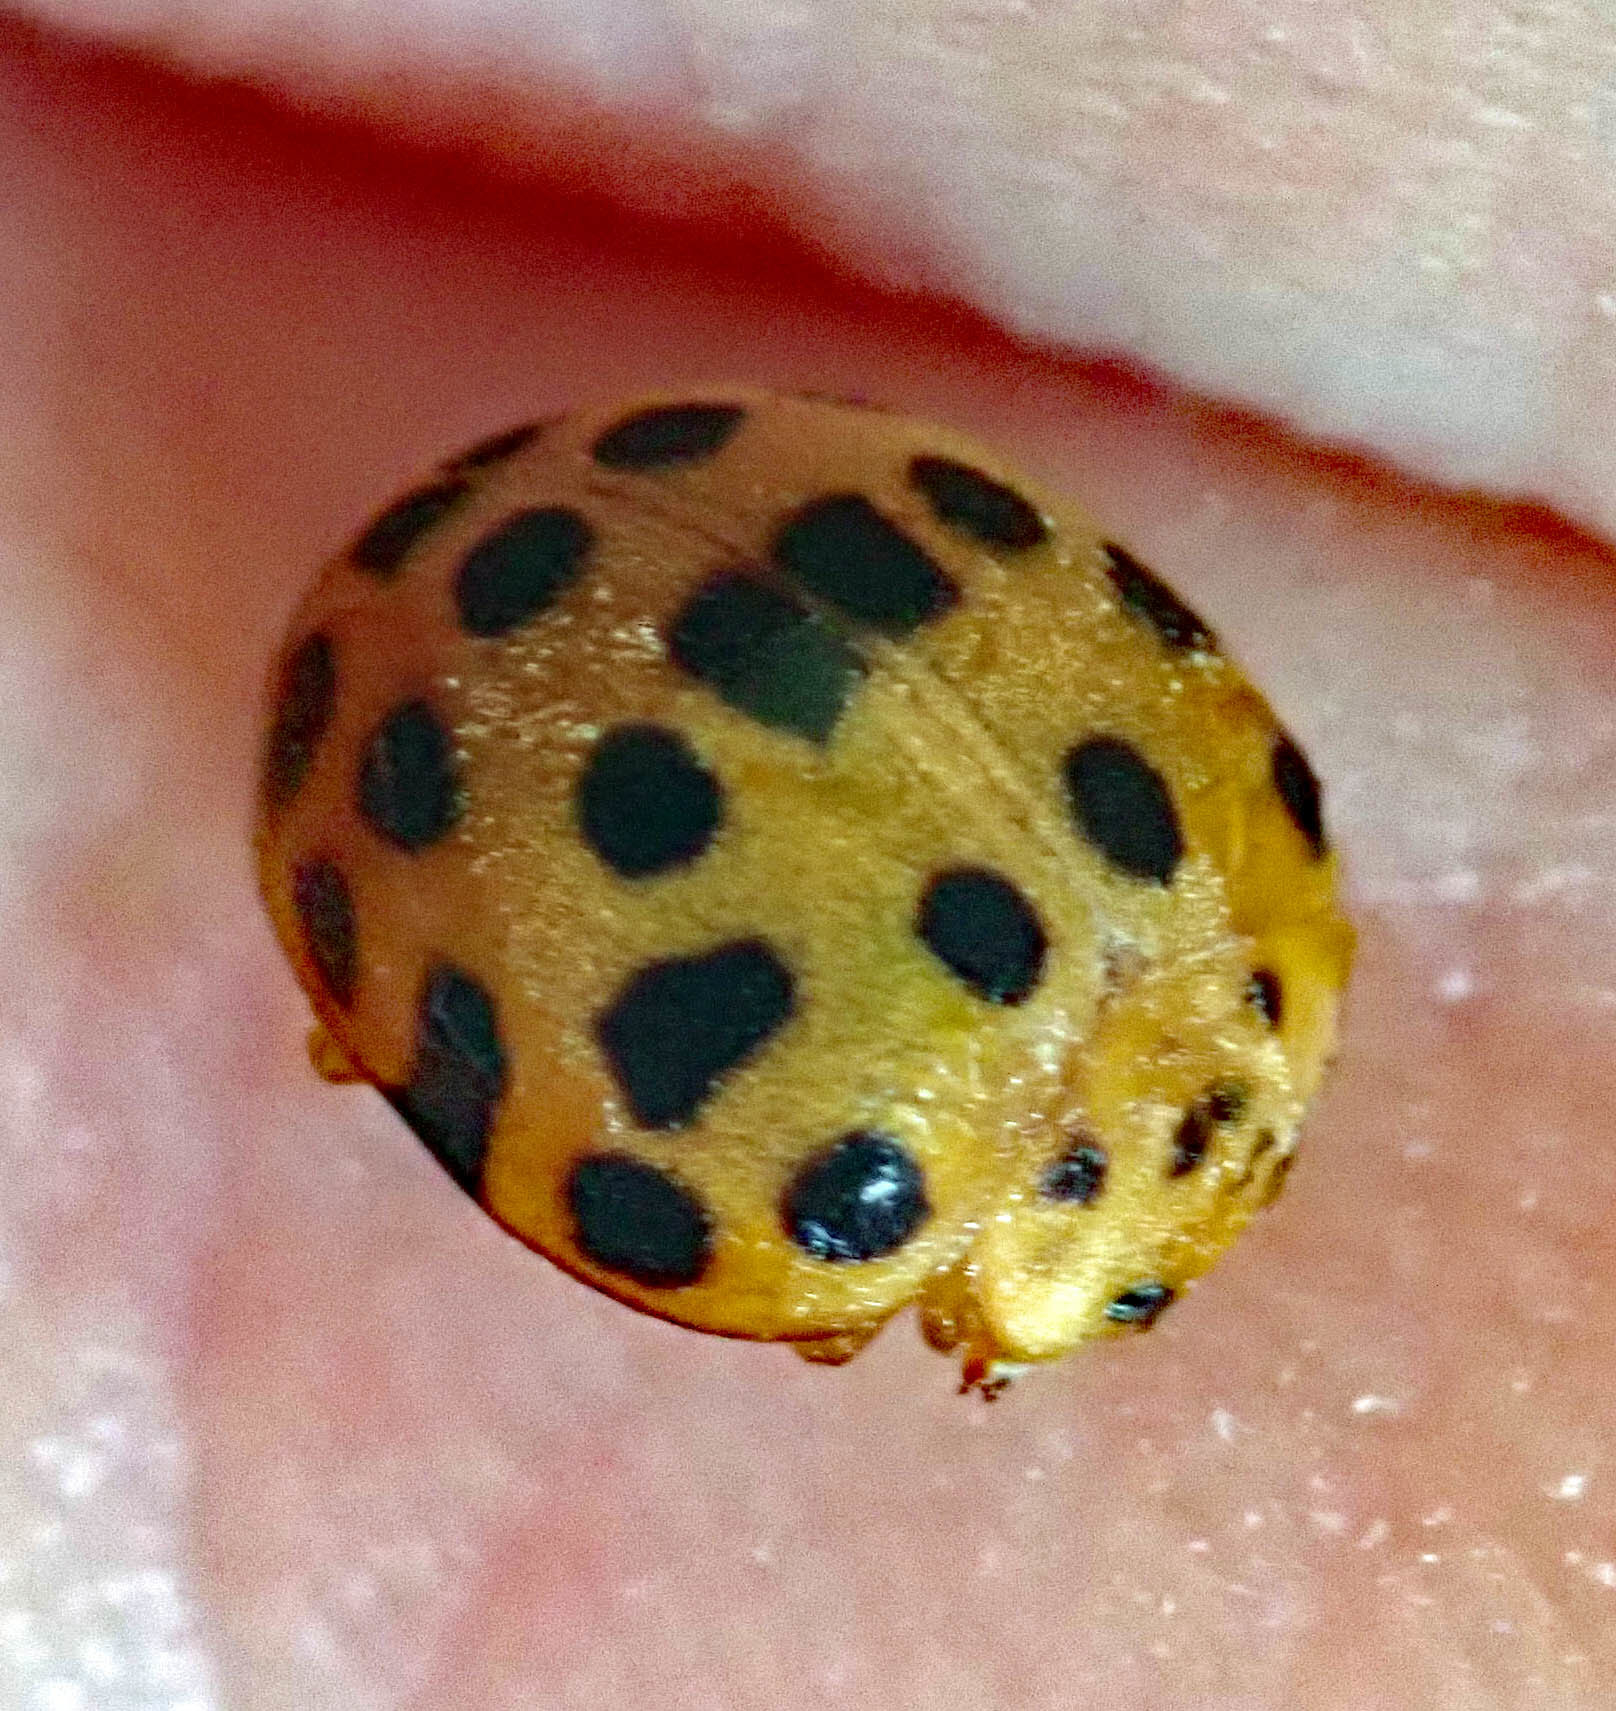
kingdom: Animalia
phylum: Arthropoda
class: Insecta
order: Coleoptera
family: Coccinellidae
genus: Henosepilachna
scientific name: Henosepilachna vigintioctopunctata
